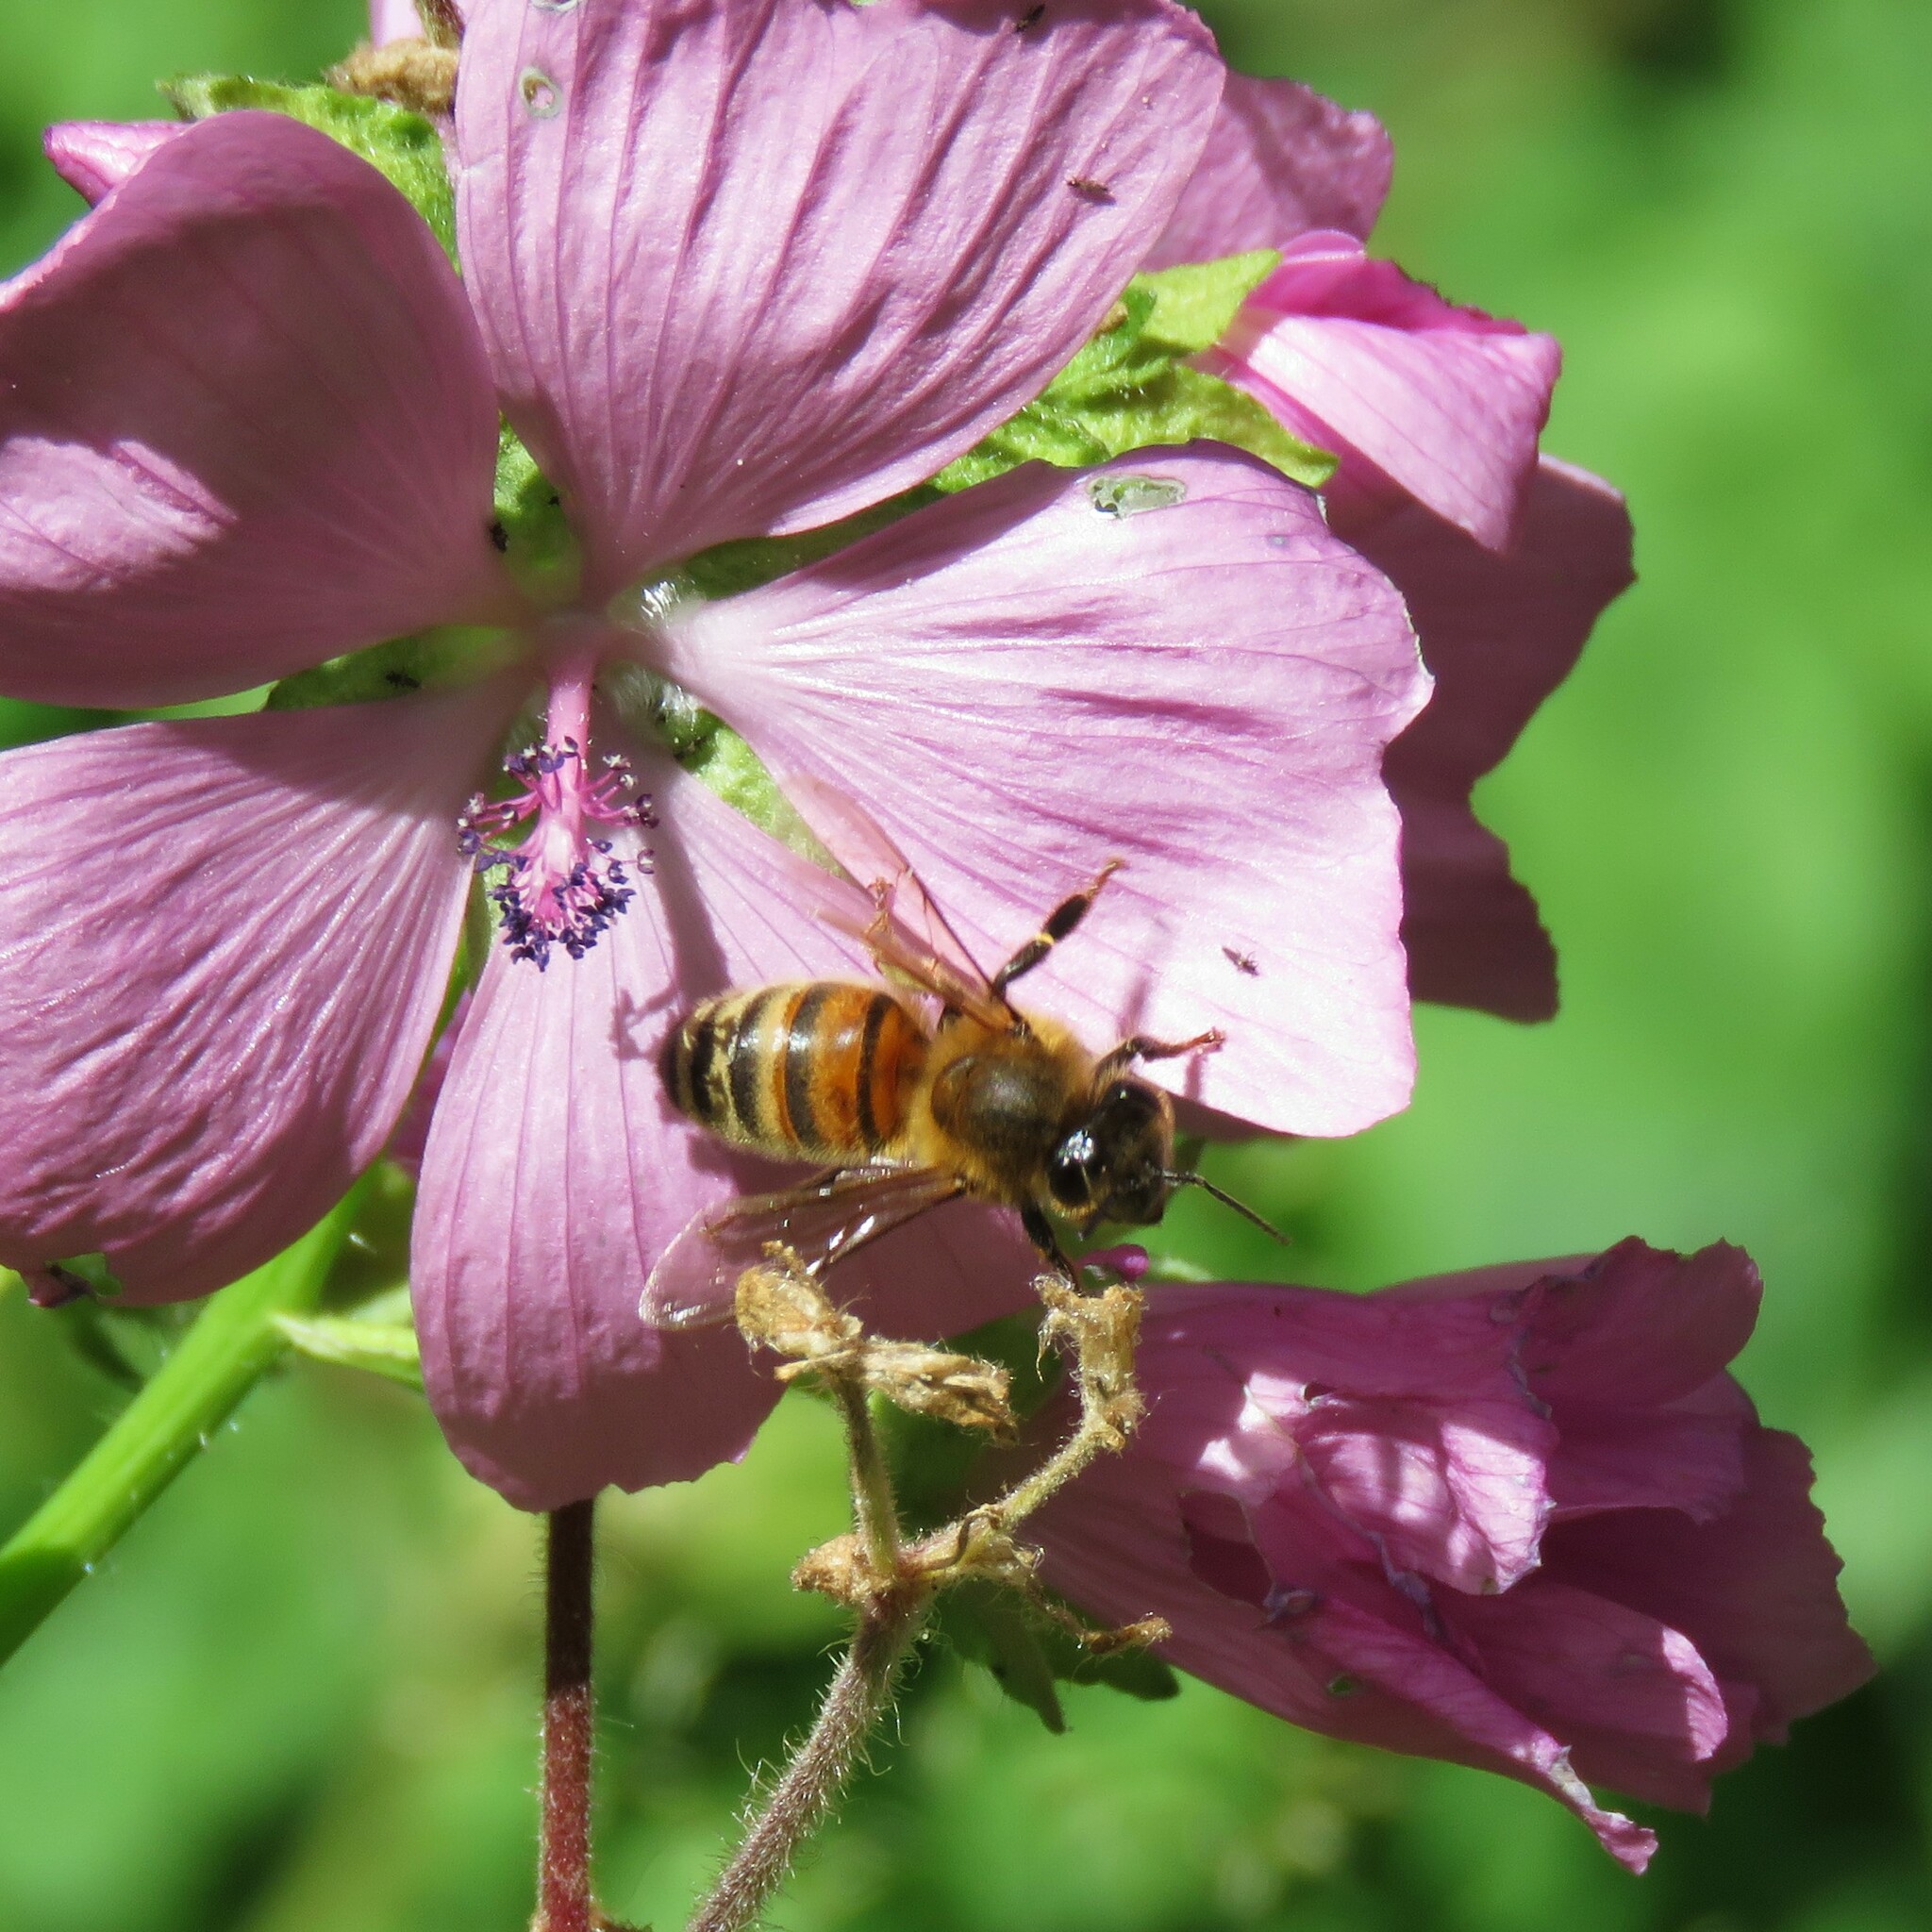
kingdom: Animalia
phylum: Arthropoda
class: Insecta
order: Hymenoptera
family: Apidae
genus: Apis
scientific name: Apis mellifera
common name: Honey bee
